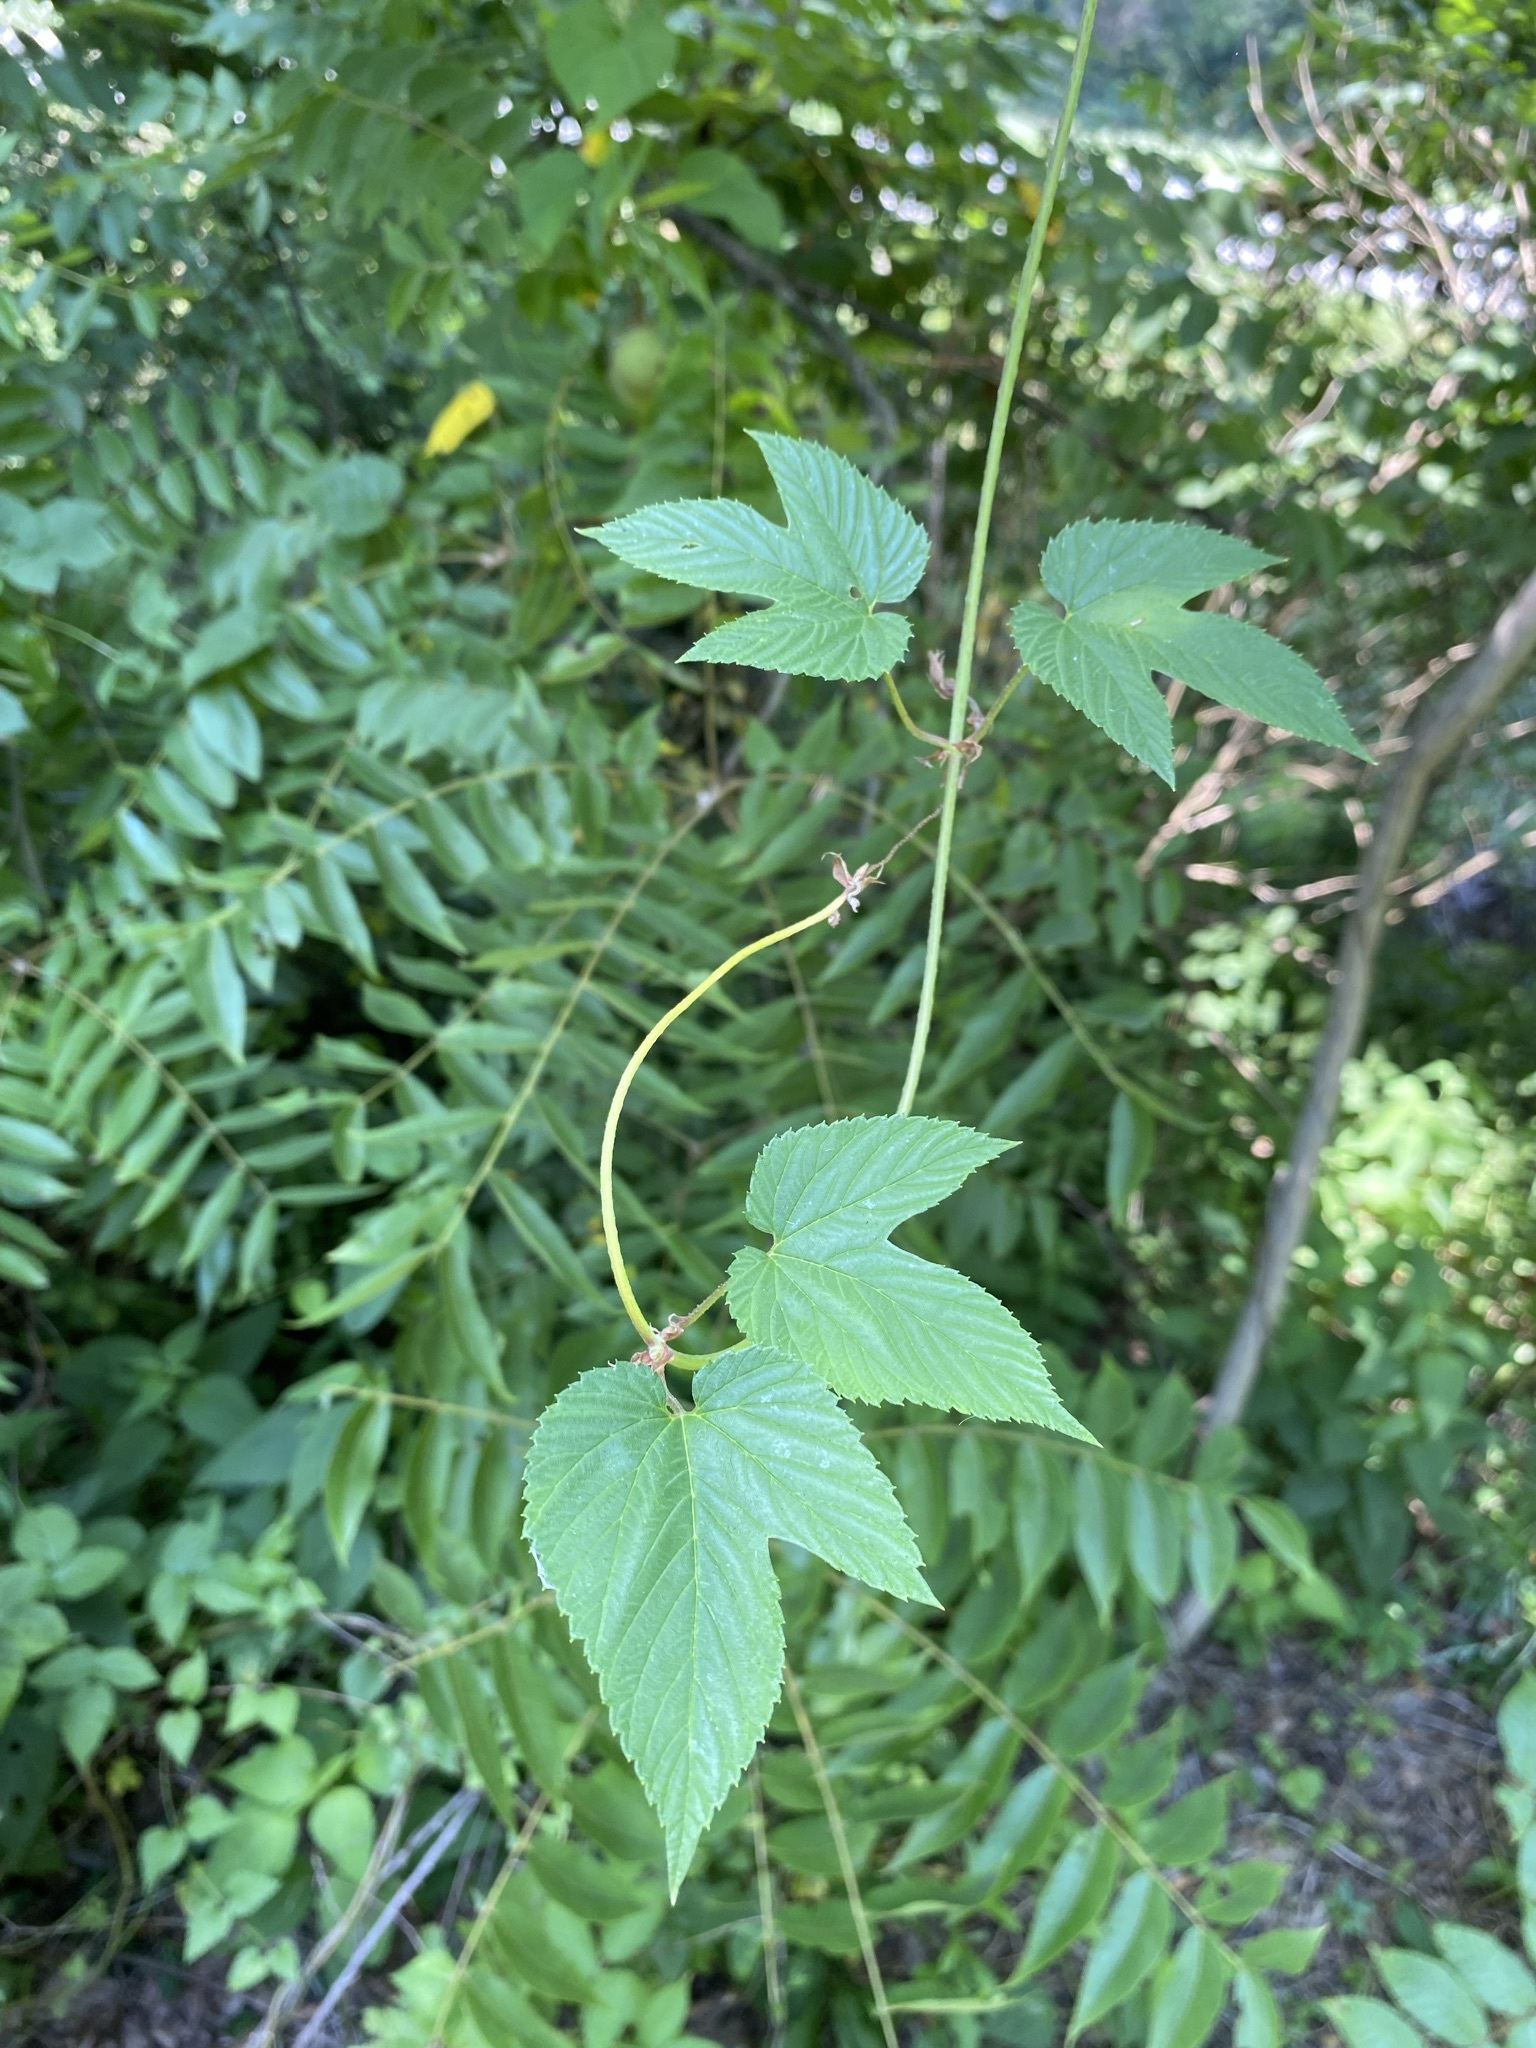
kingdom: Plantae
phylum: Tracheophyta
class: Magnoliopsida
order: Rosales
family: Cannabaceae
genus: Humulus
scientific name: Humulus lupulus
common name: Hop
